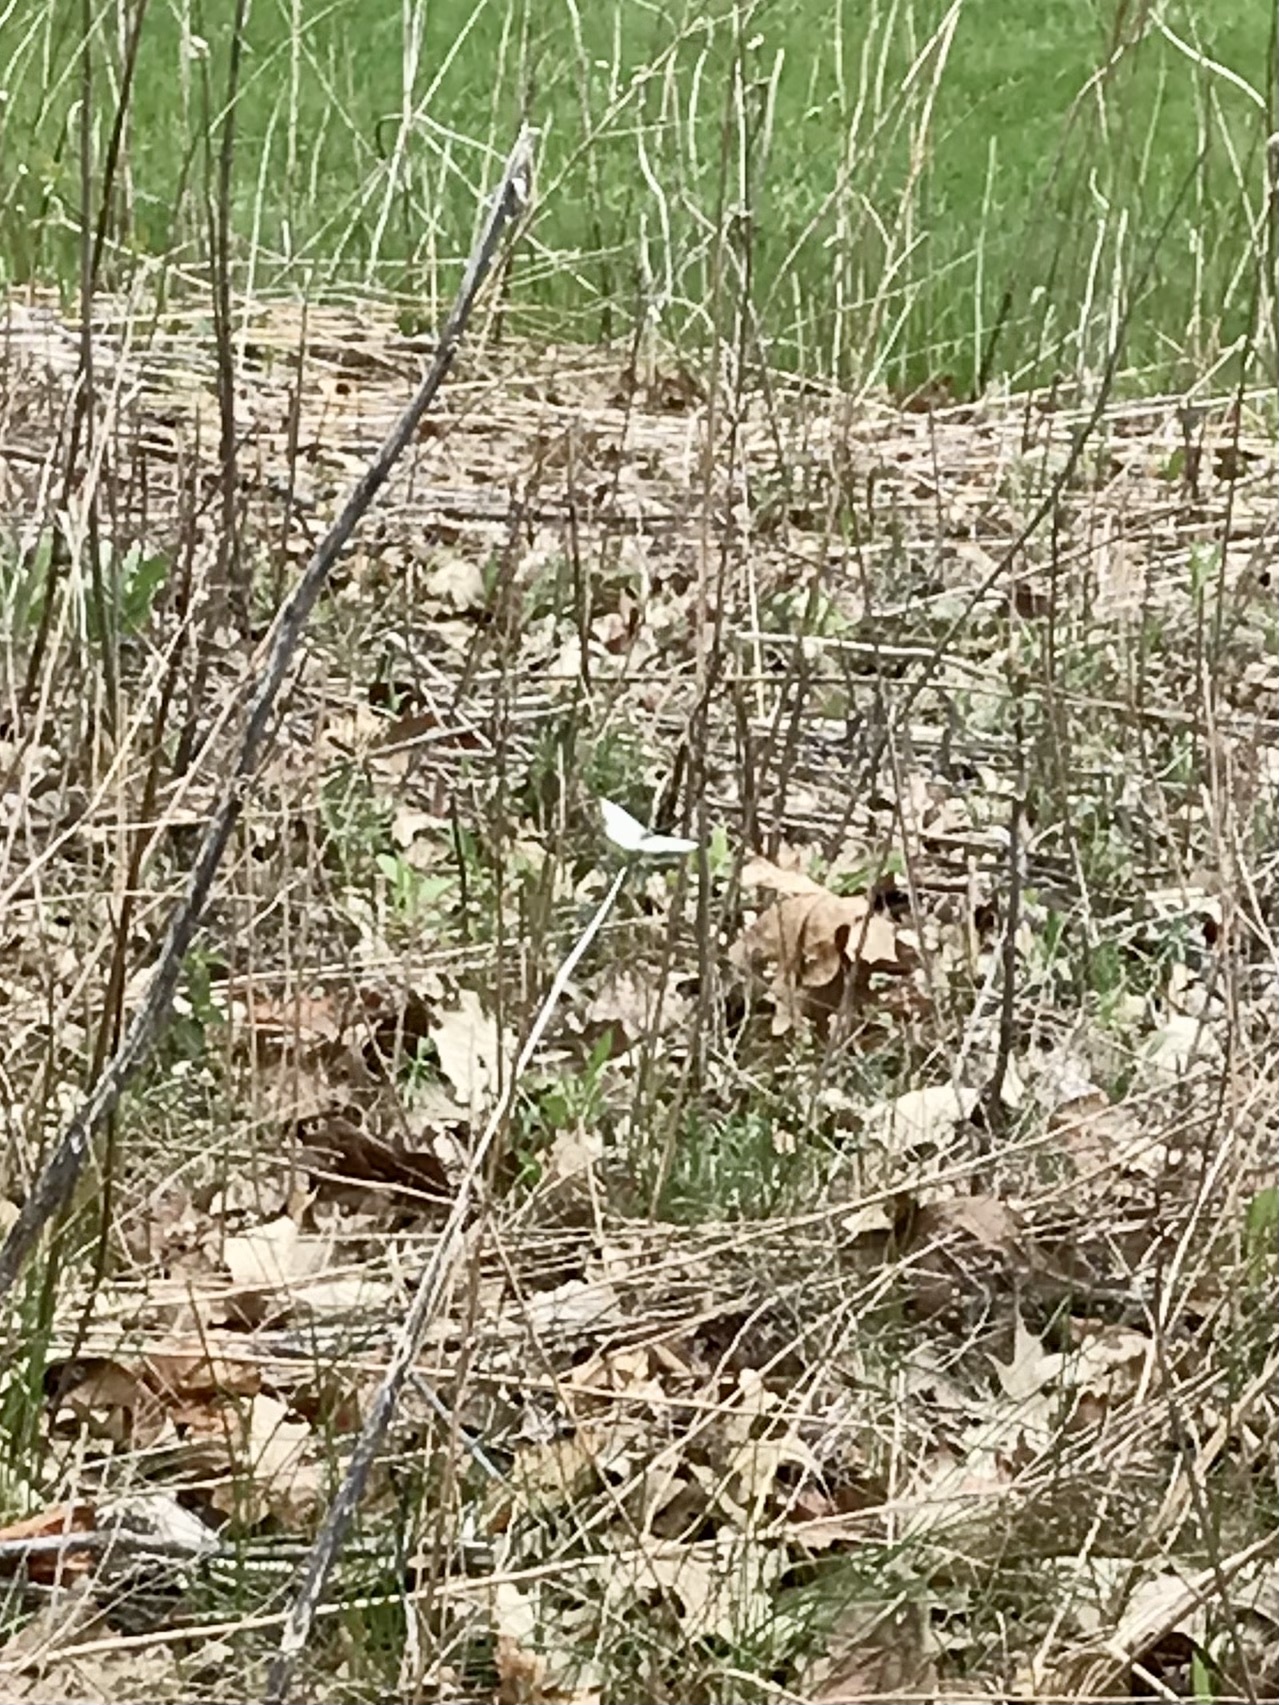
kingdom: Animalia
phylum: Arthropoda
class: Insecta
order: Lepidoptera
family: Pieridae
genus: Pieris
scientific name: Pieris rapae
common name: Small white
